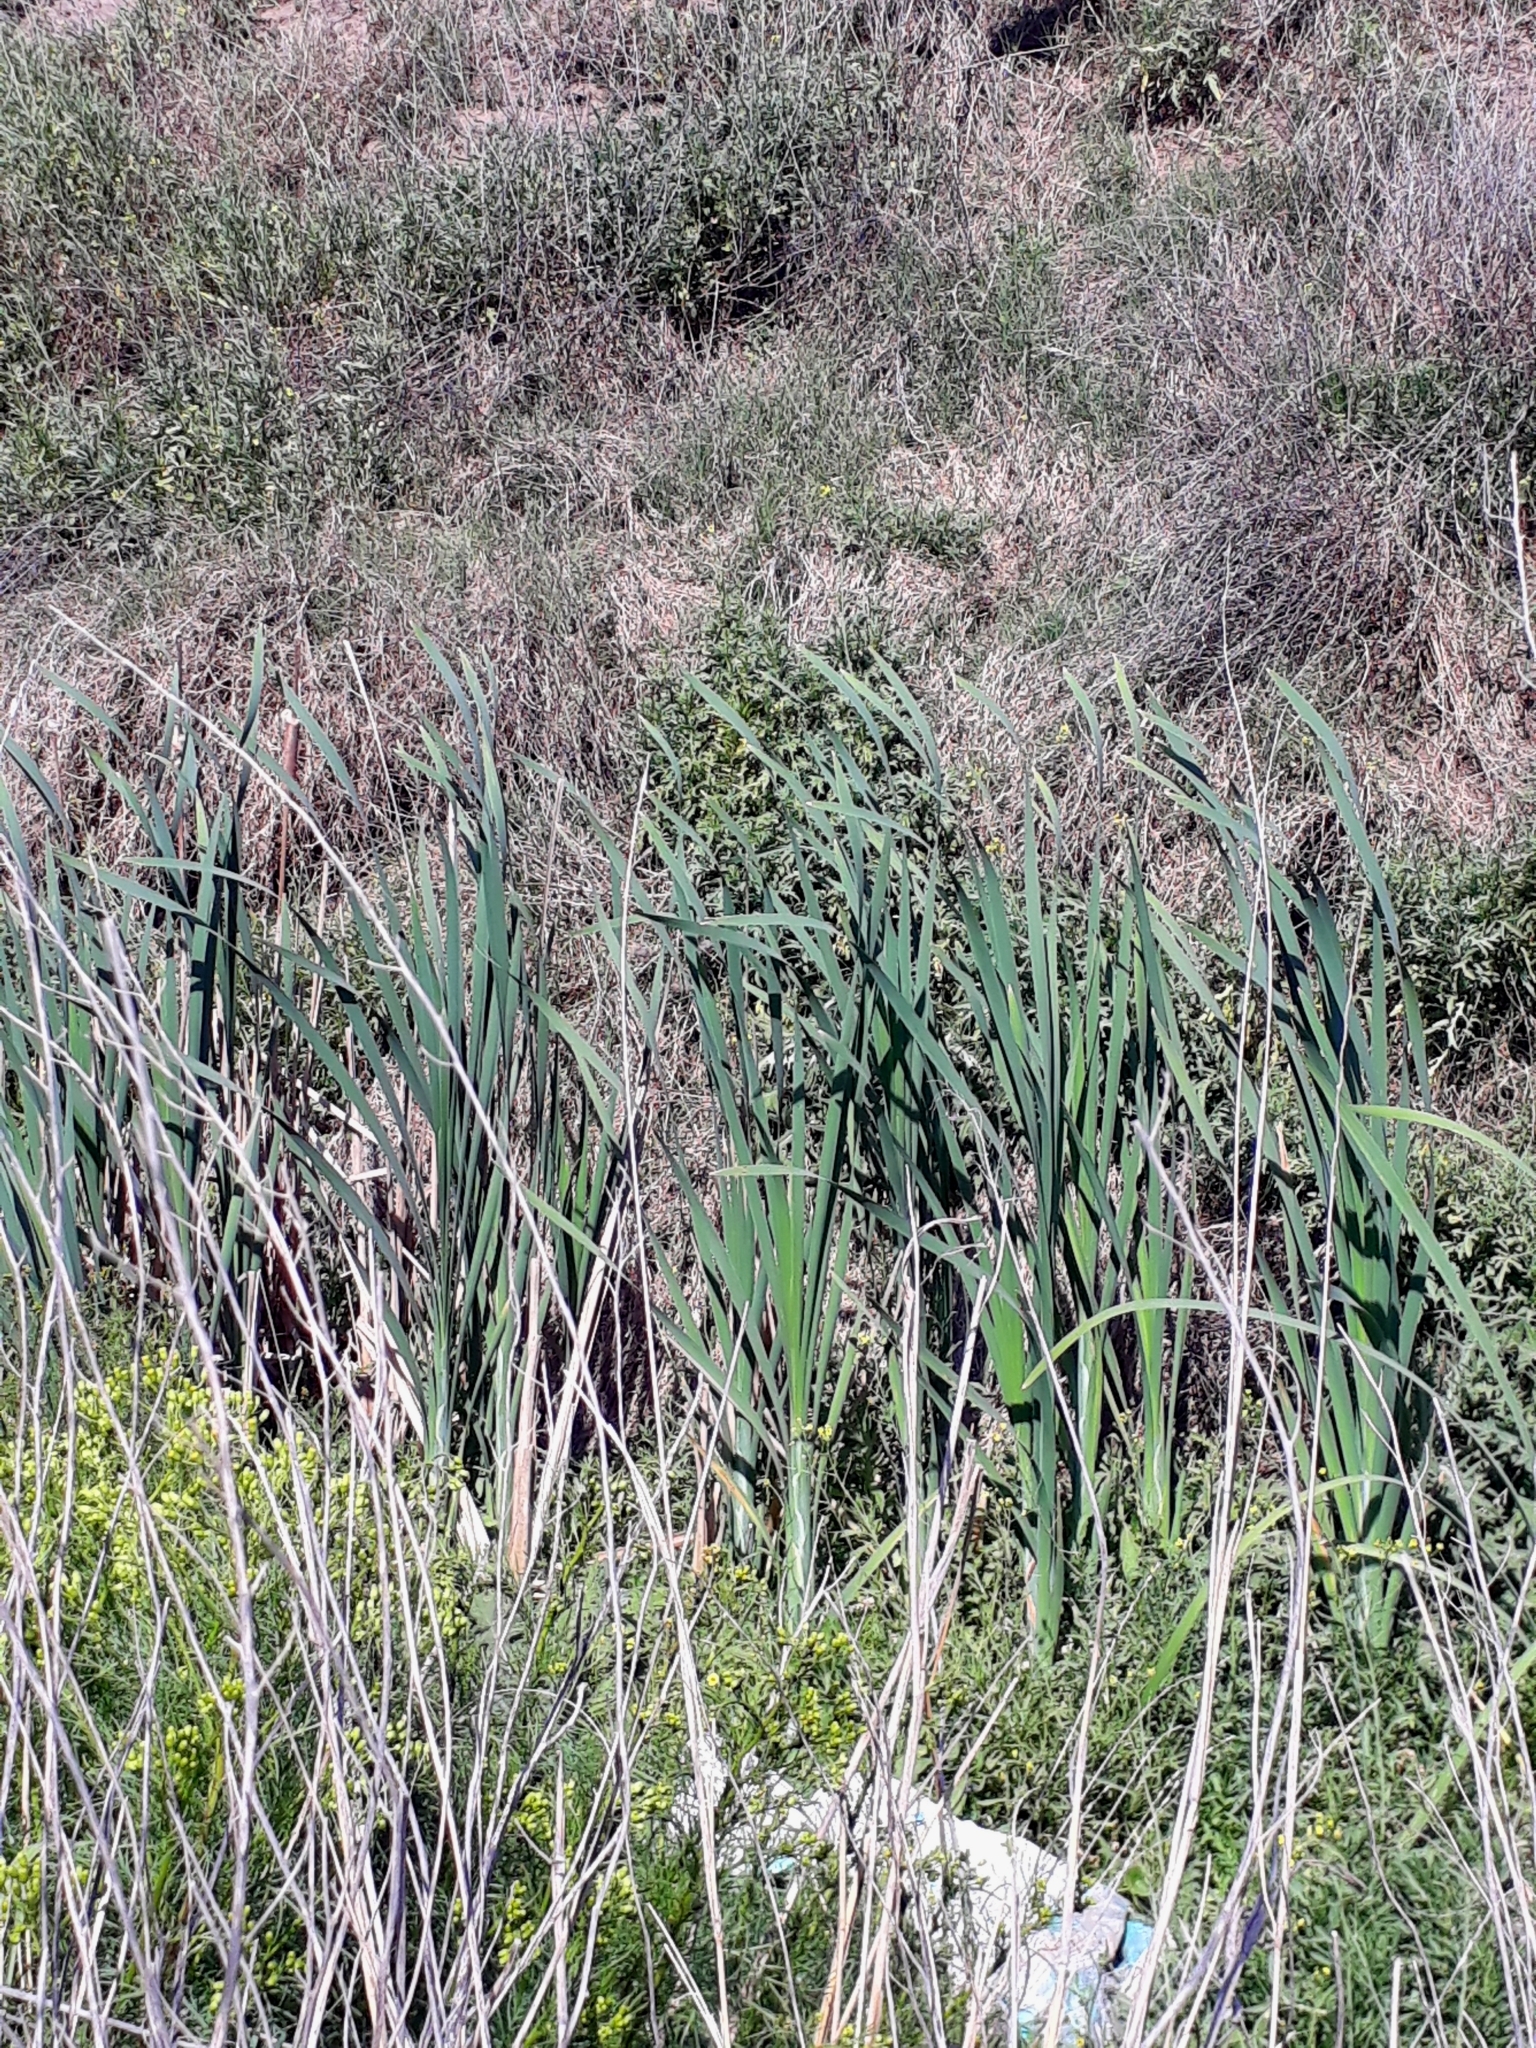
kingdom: Plantae
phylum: Tracheophyta
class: Liliopsida
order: Poales
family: Typhaceae
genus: Typha
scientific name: Typha latifolia
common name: Broadleaf cattail
